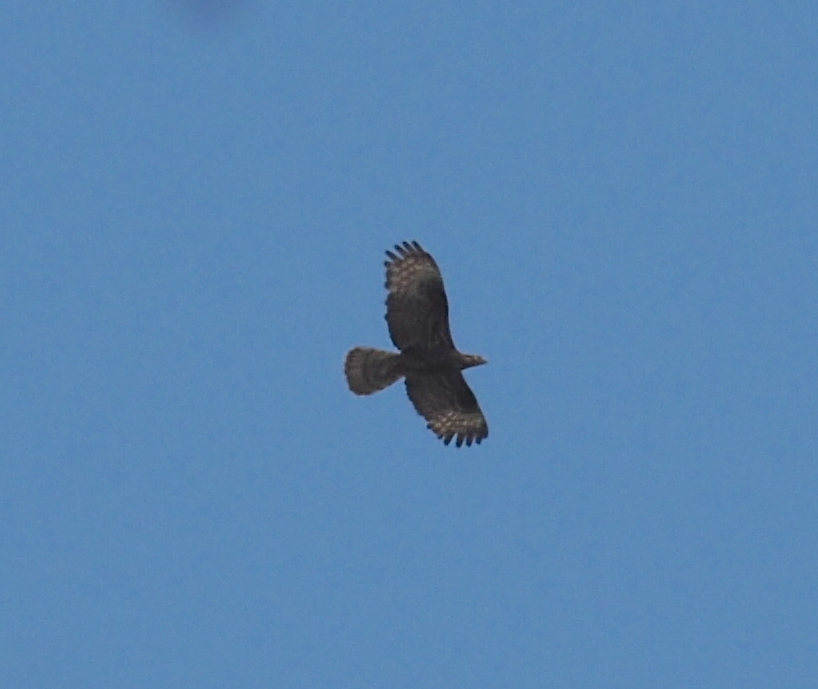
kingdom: Animalia
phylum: Chordata
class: Aves
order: Accipitriformes
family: Accipitridae
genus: Pernis
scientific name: Pernis apivorus
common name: European honey buzzard
